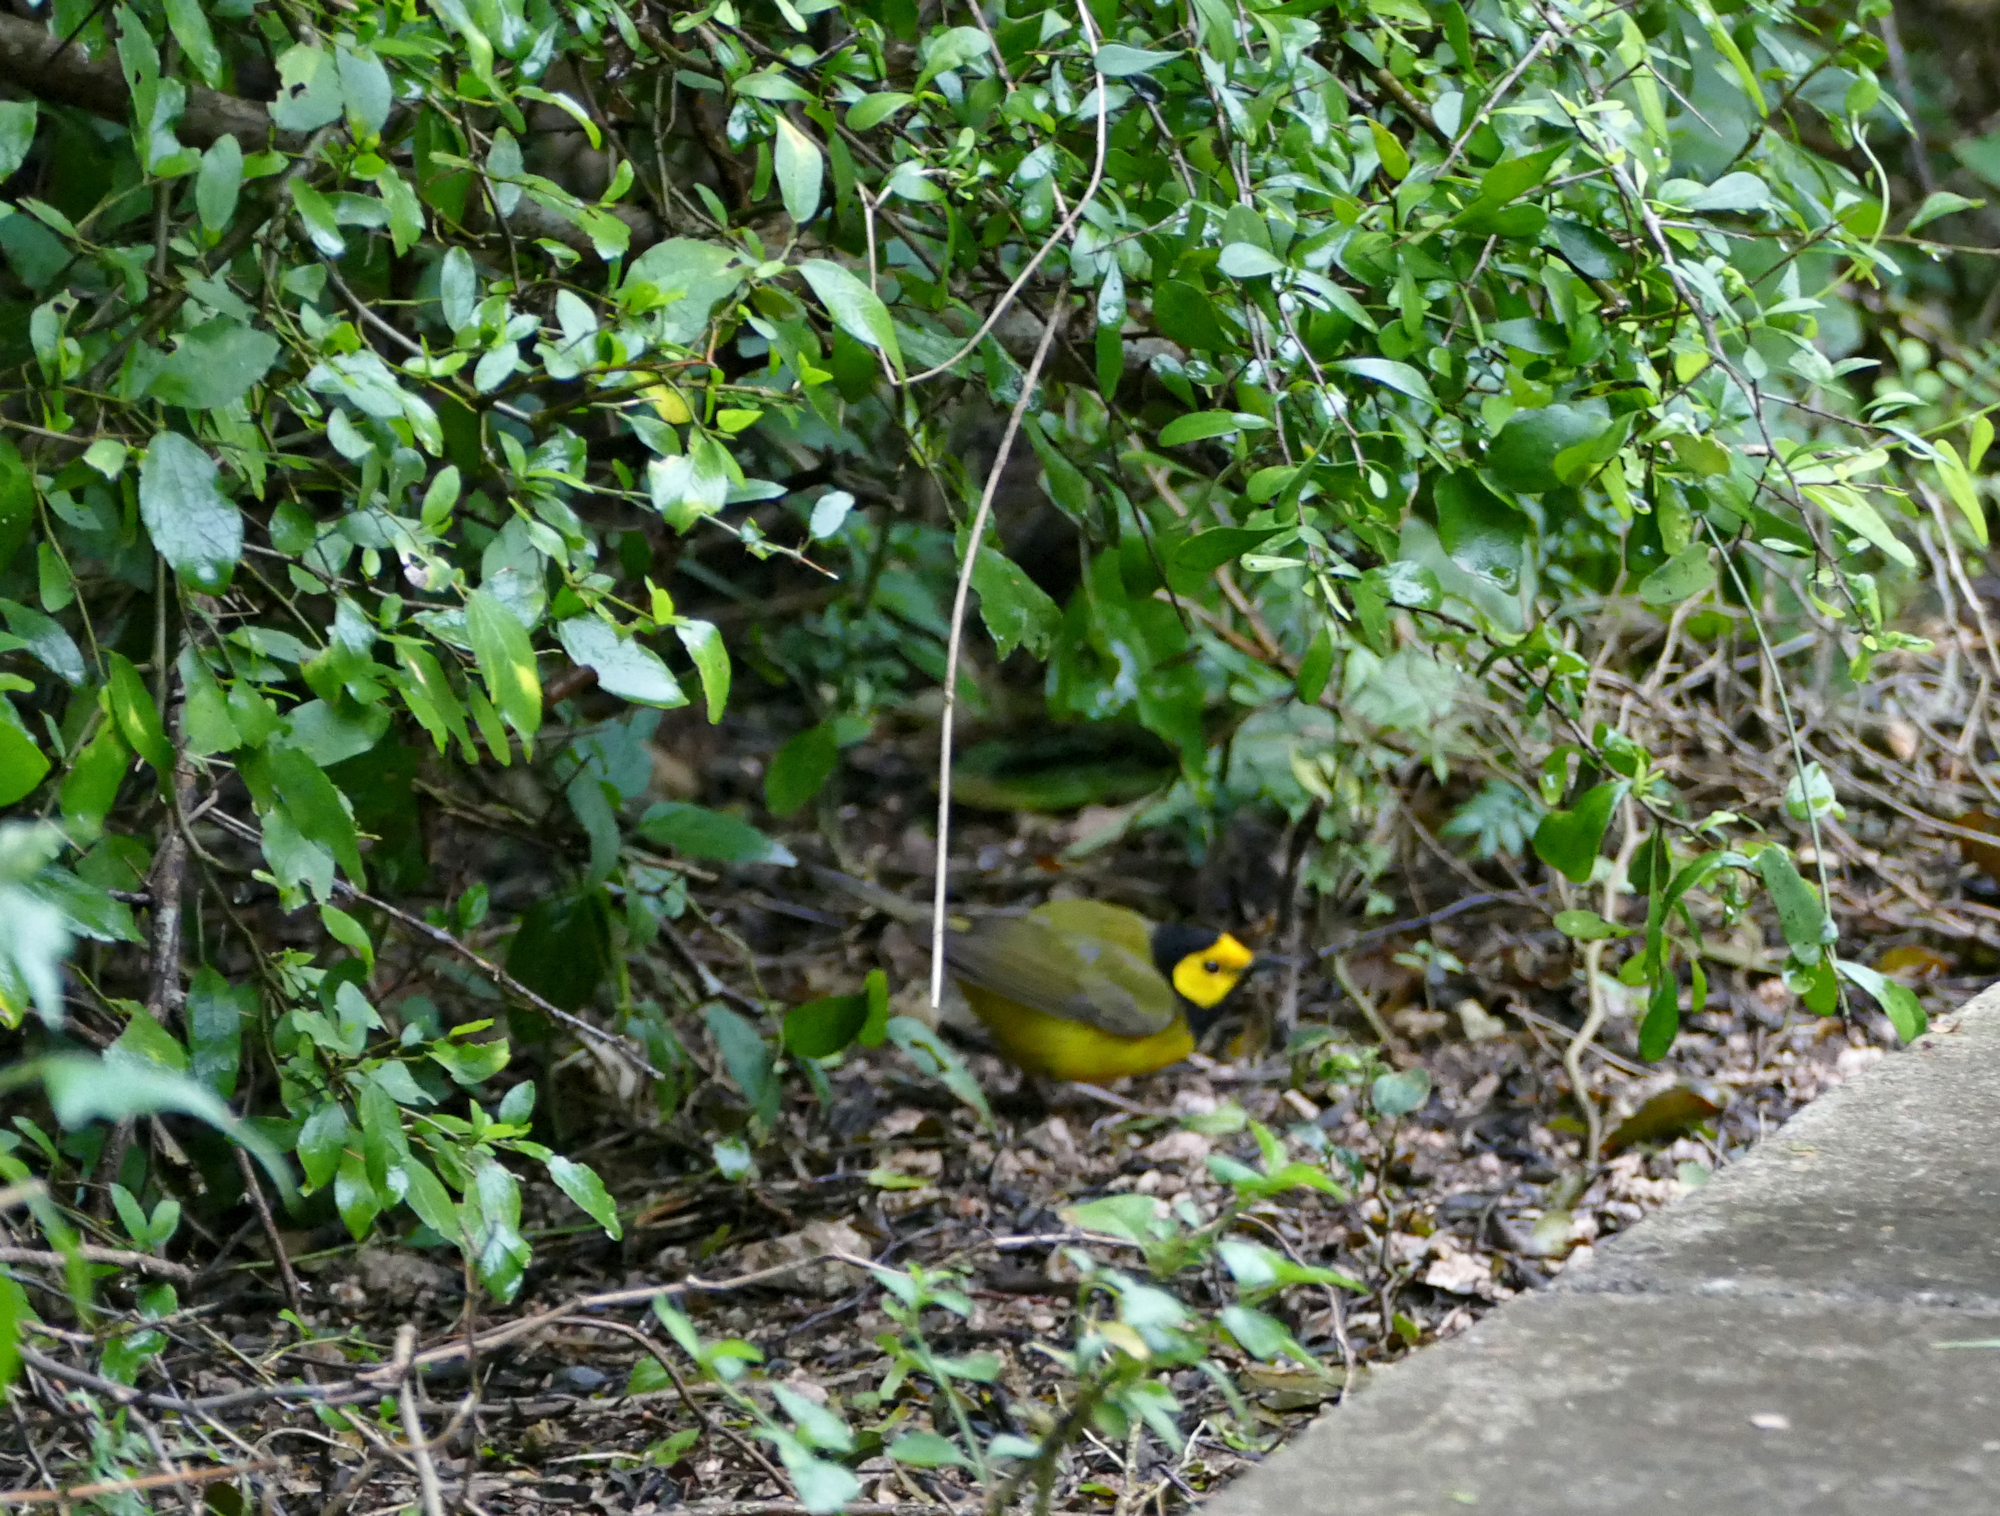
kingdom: Animalia
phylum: Chordata
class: Aves
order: Passeriformes
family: Parulidae
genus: Setophaga
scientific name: Setophaga citrina
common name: Hooded warbler
